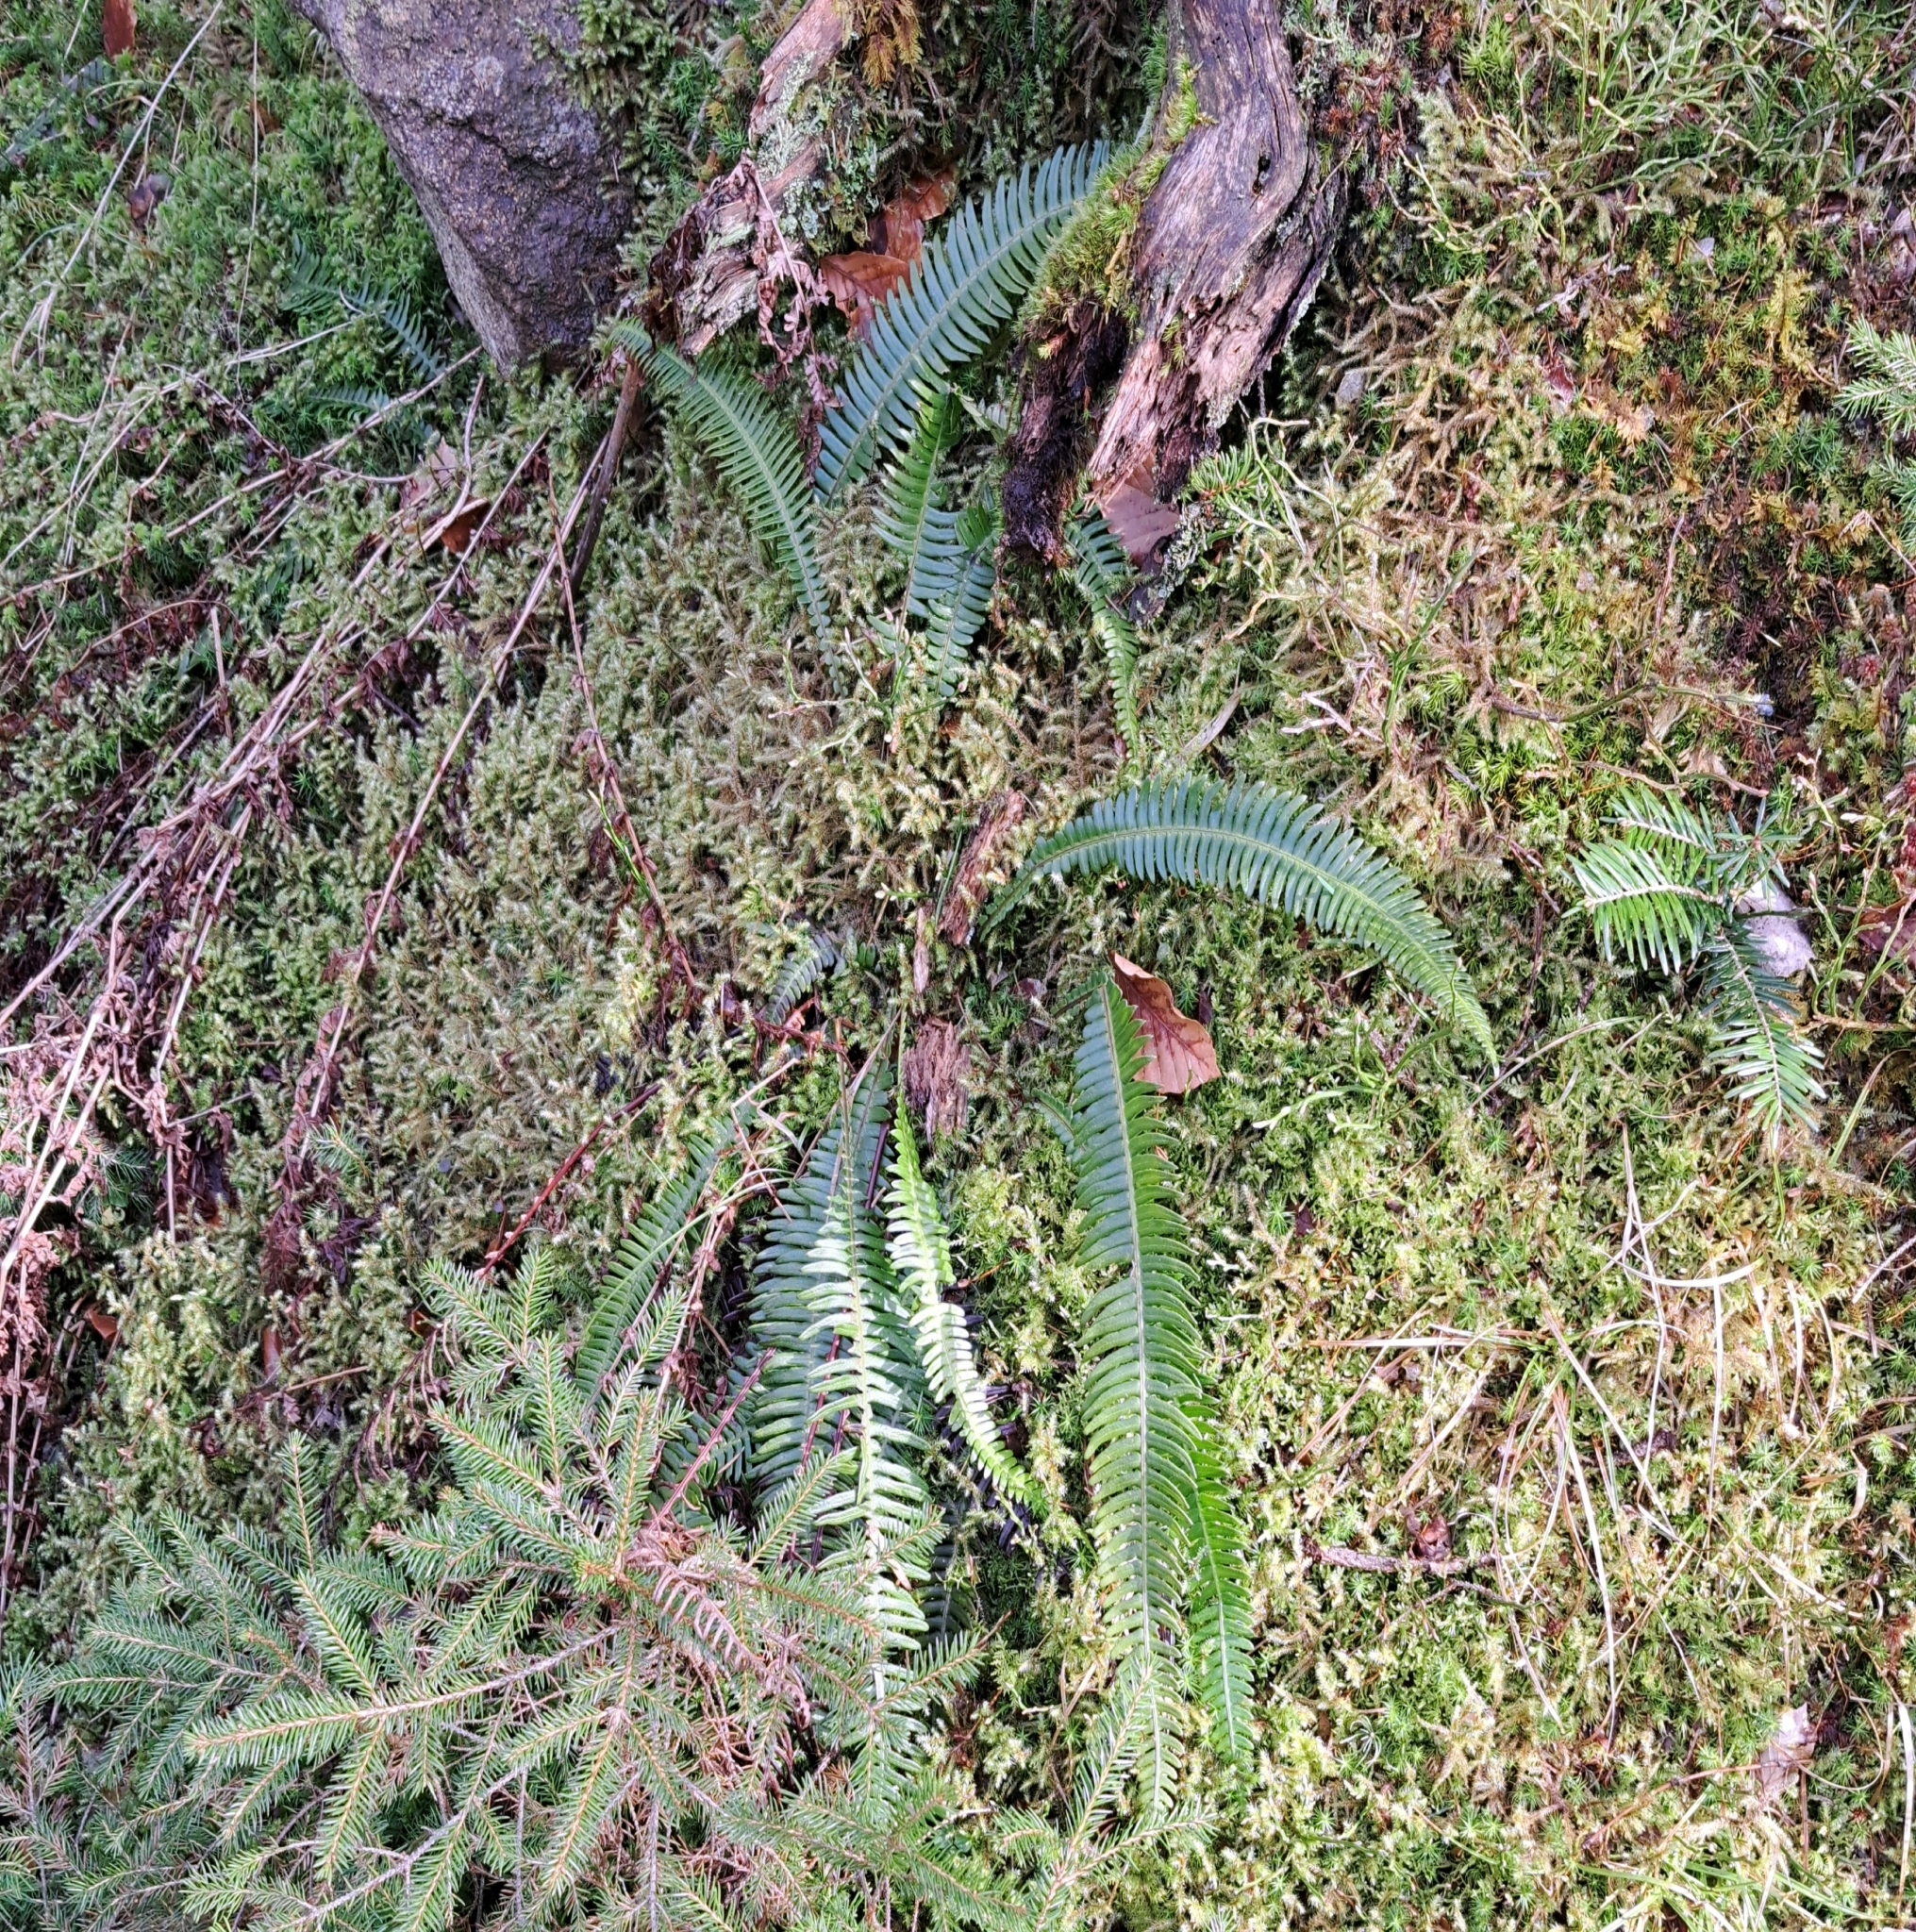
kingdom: Plantae
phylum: Tracheophyta
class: Polypodiopsida
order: Polypodiales
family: Blechnaceae
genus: Struthiopteris
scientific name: Struthiopteris spicant
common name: Deer fern
